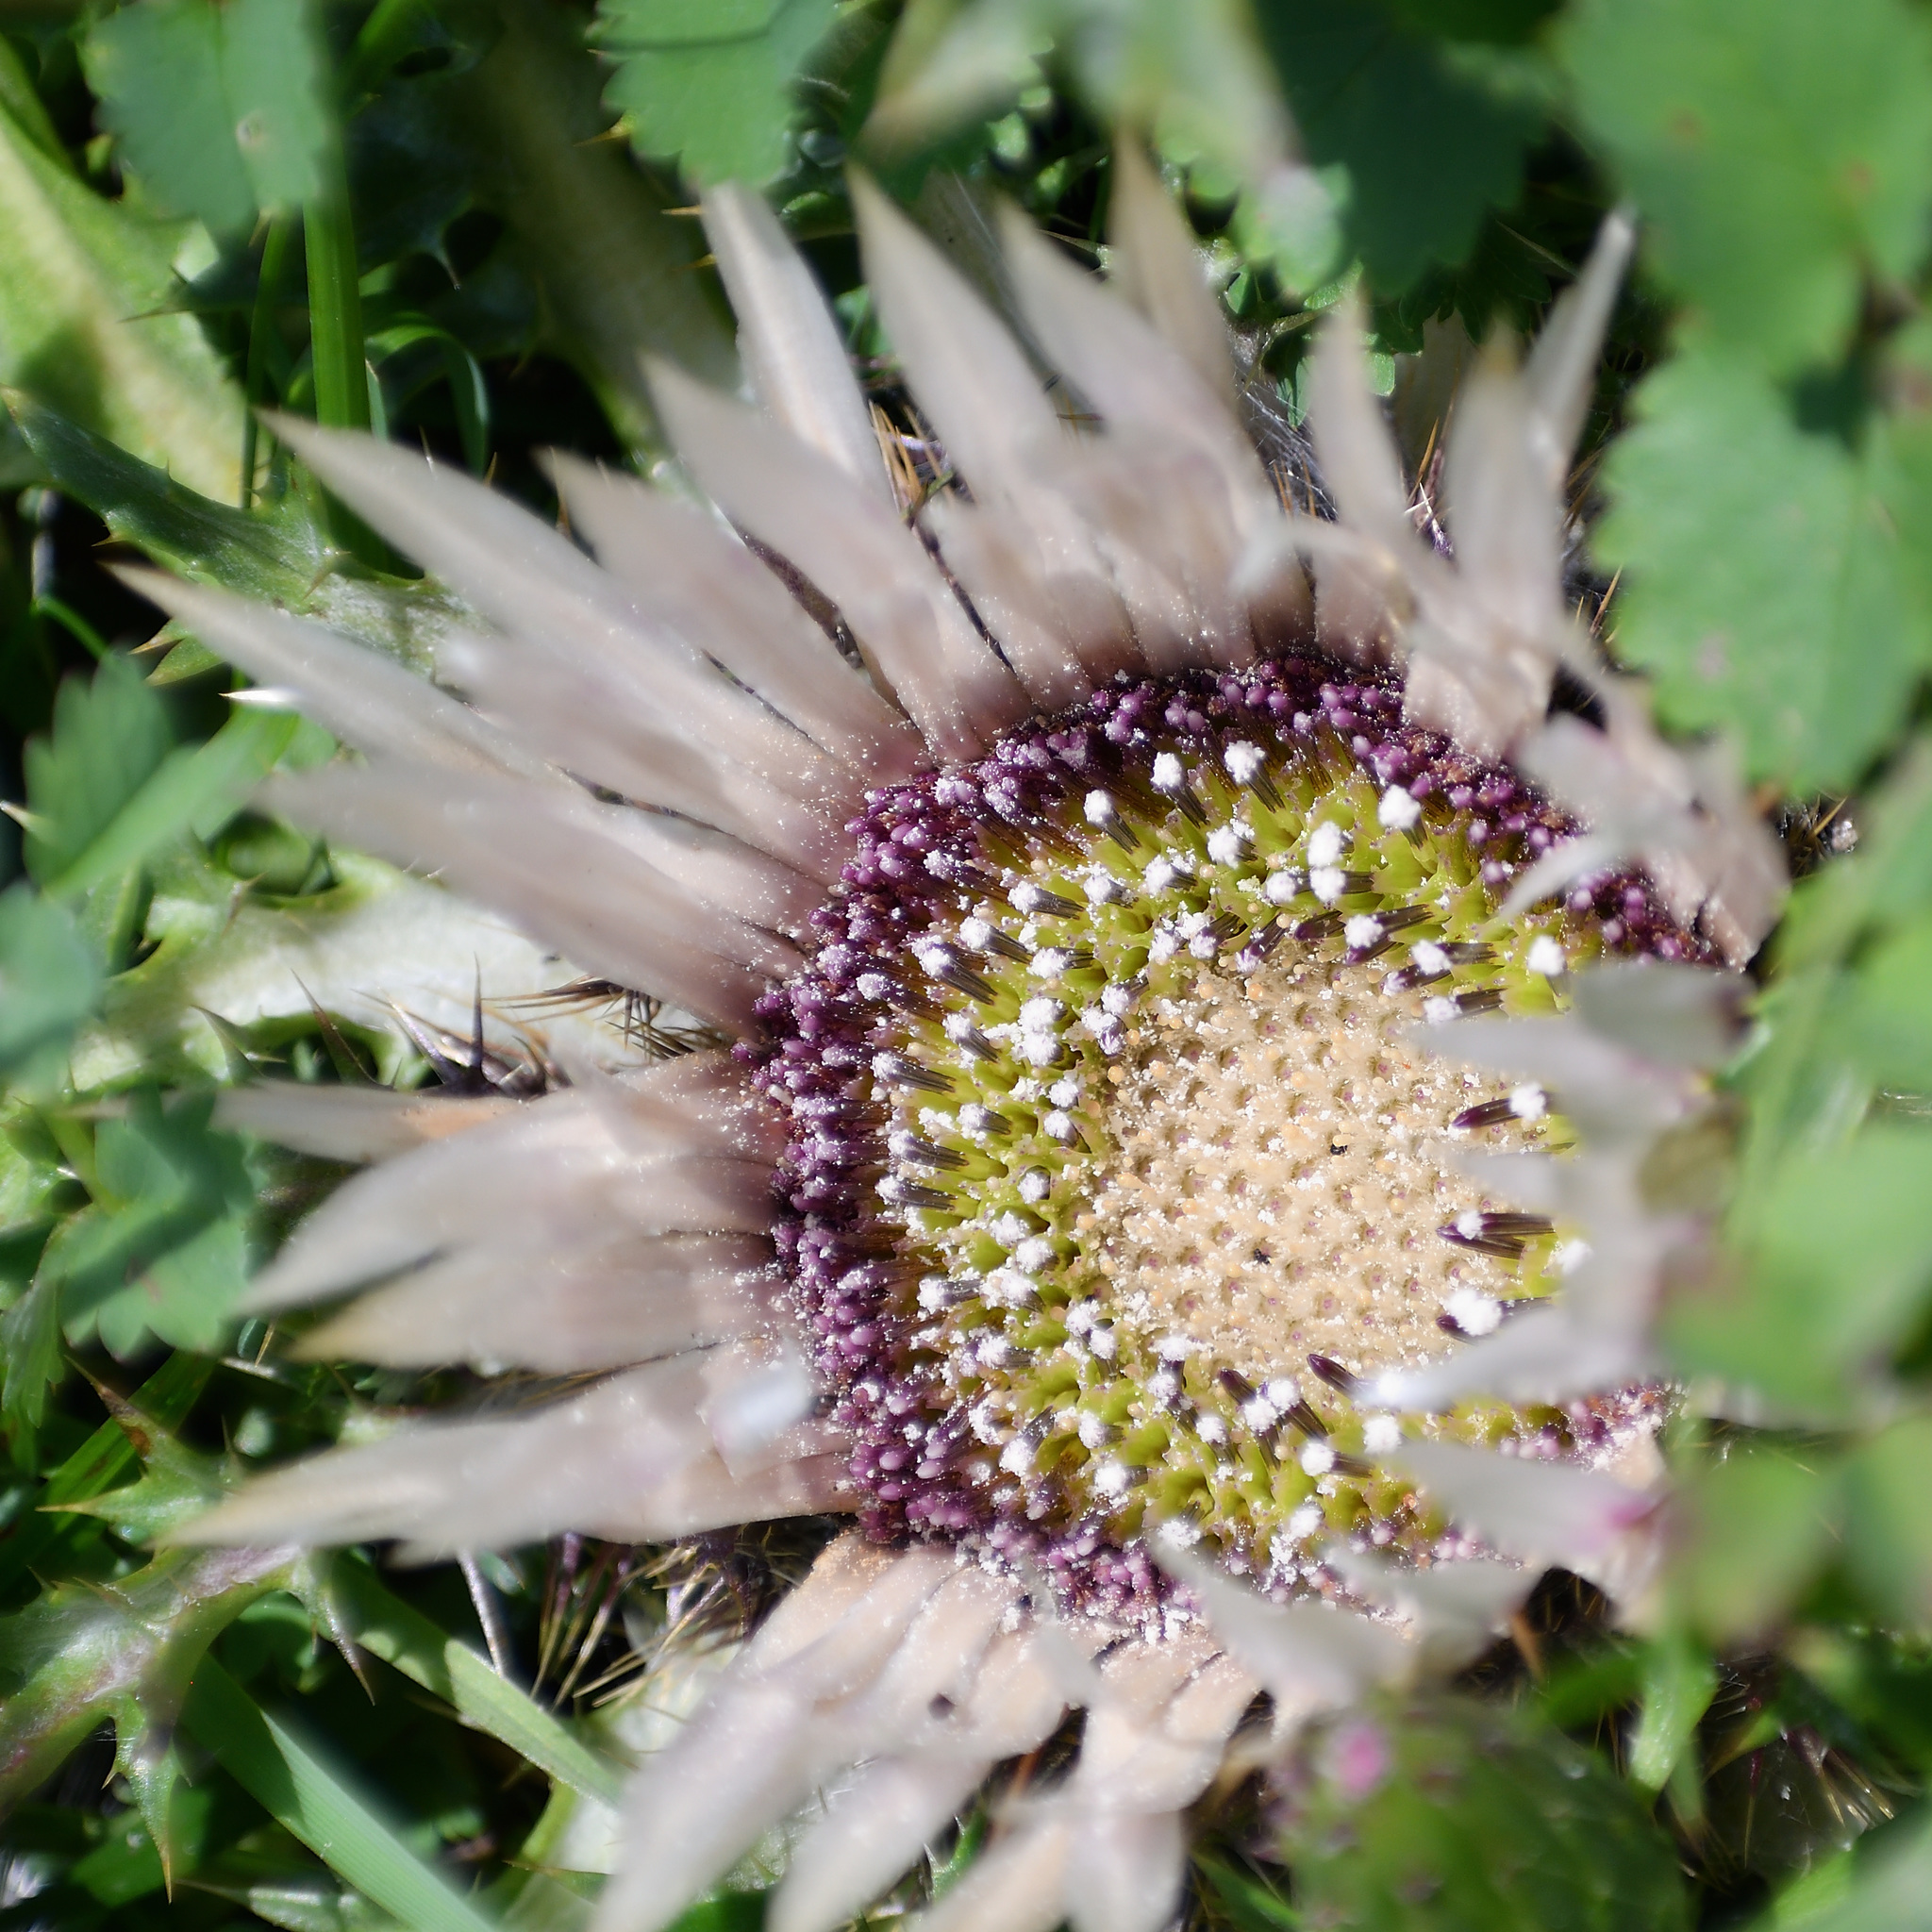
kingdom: Plantae
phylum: Tracheophyta
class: Magnoliopsida
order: Asterales
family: Asteraceae
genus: Carlina
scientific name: Carlina acaulis
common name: Stemless carline thistle
